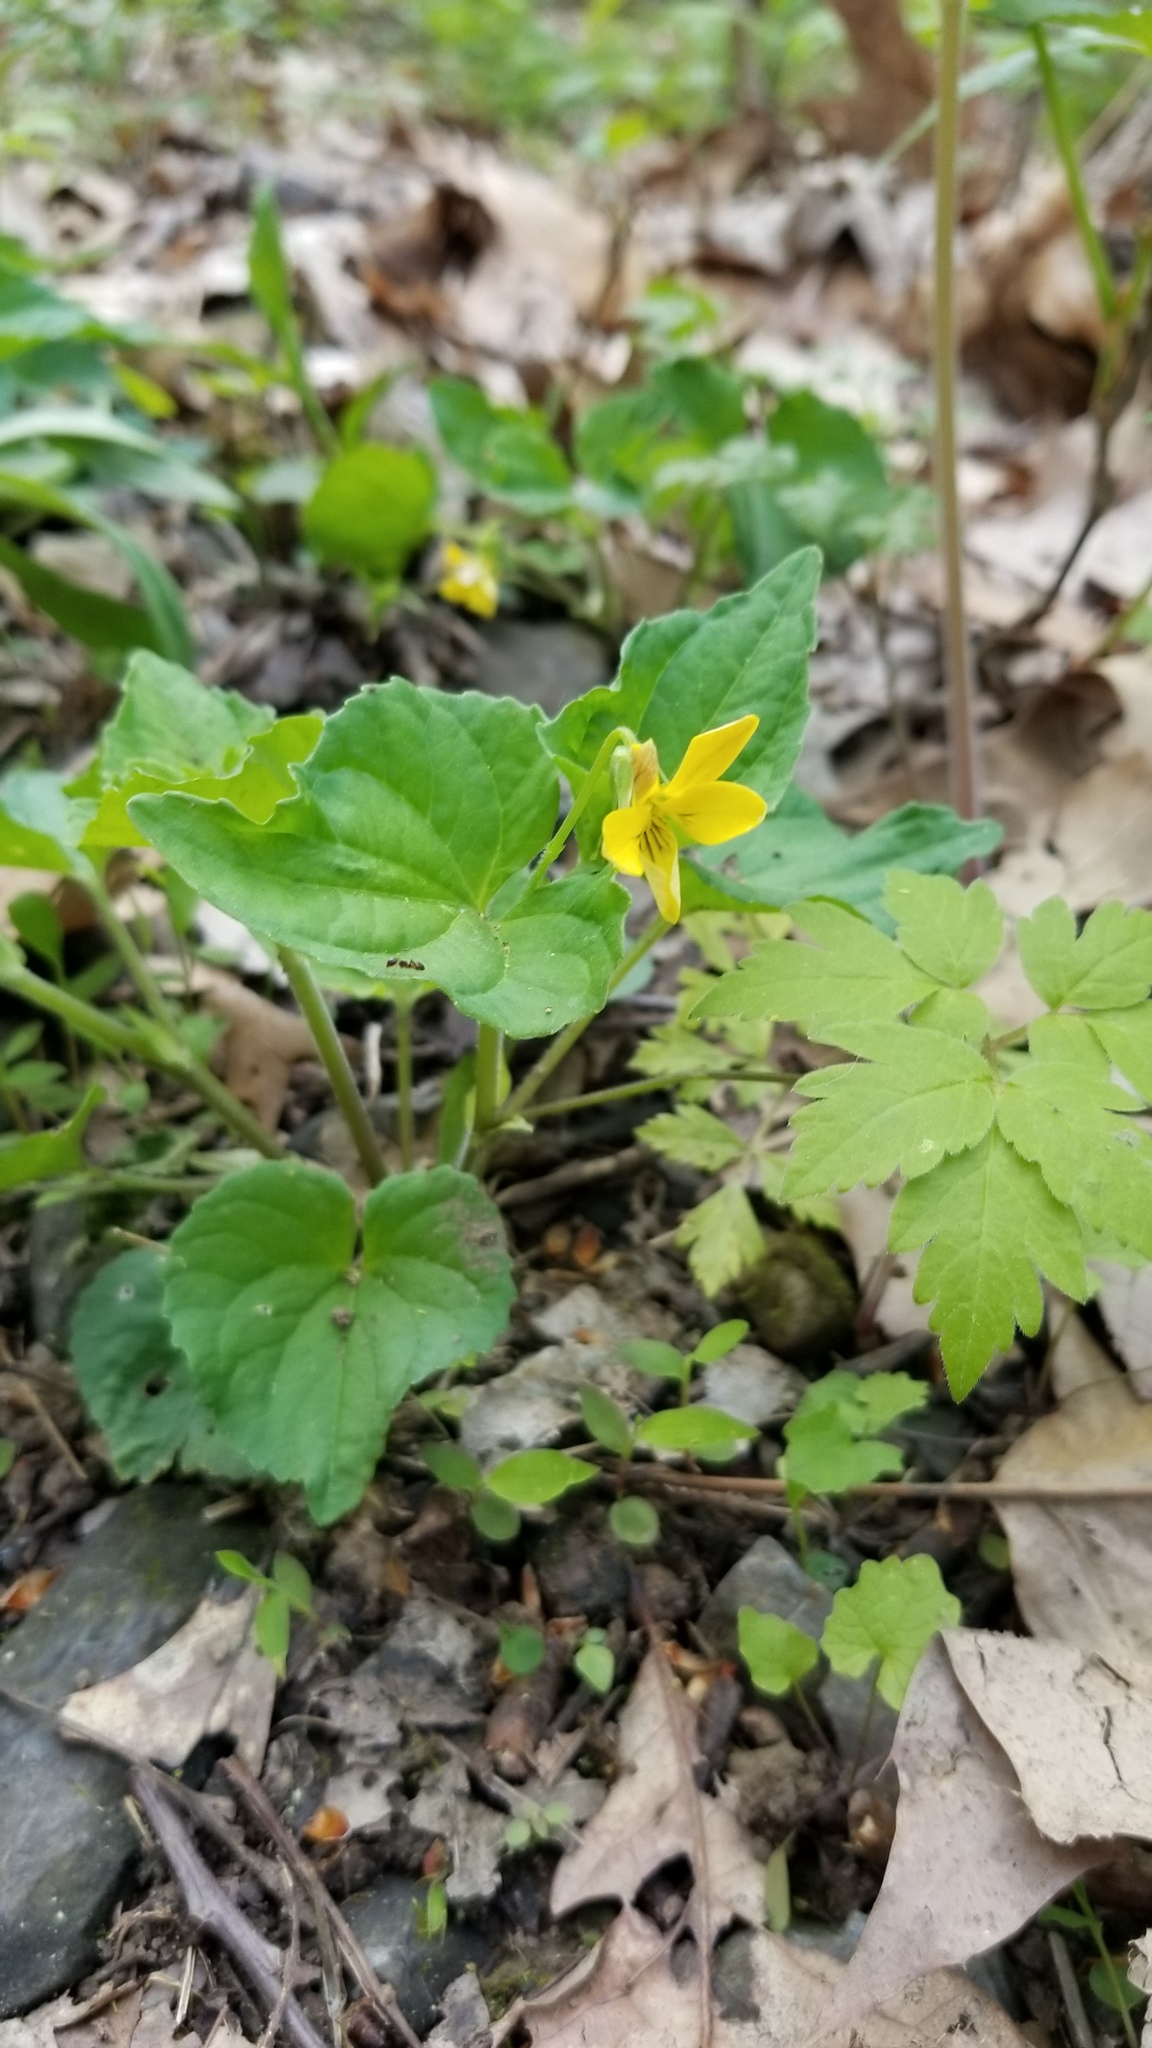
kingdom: Plantae
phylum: Tracheophyta
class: Magnoliopsida
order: Malpighiales
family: Violaceae
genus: Viola
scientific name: Viola eriocarpa
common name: Smooth yellow violet
